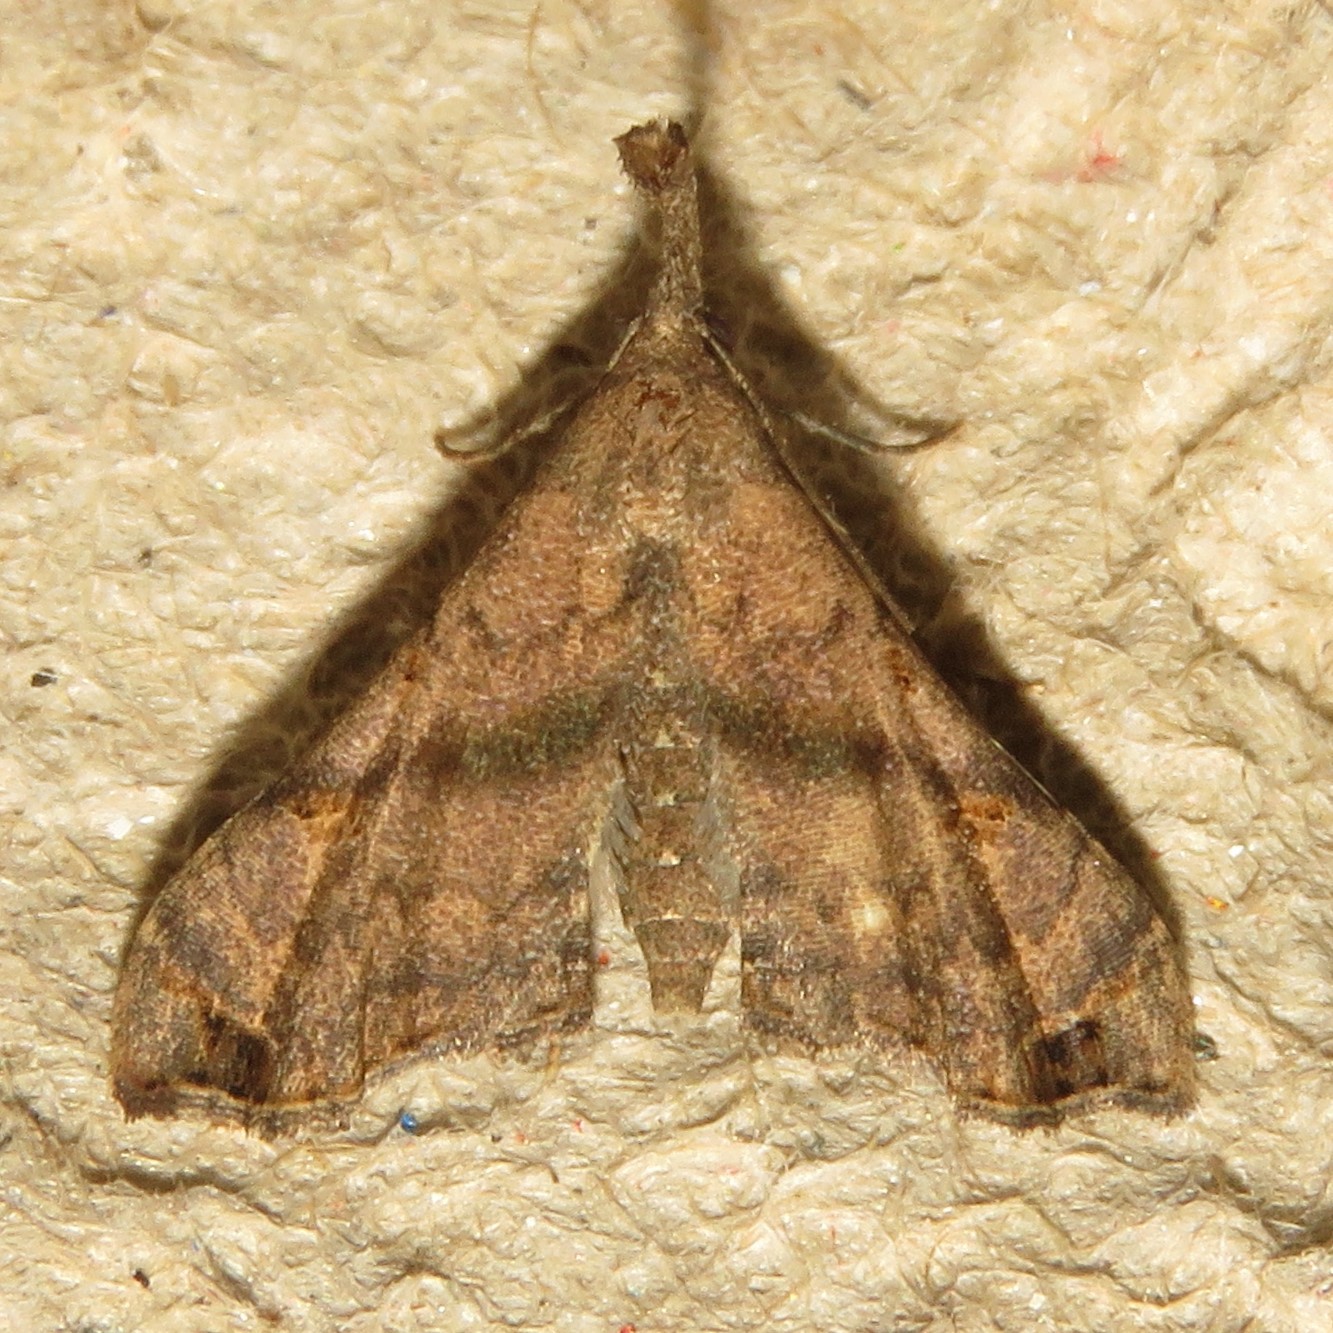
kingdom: Animalia
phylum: Arthropoda
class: Insecta
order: Lepidoptera
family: Erebidae
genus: Palthis
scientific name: Palthis asopialis
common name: Faint-spotted palthis moth
